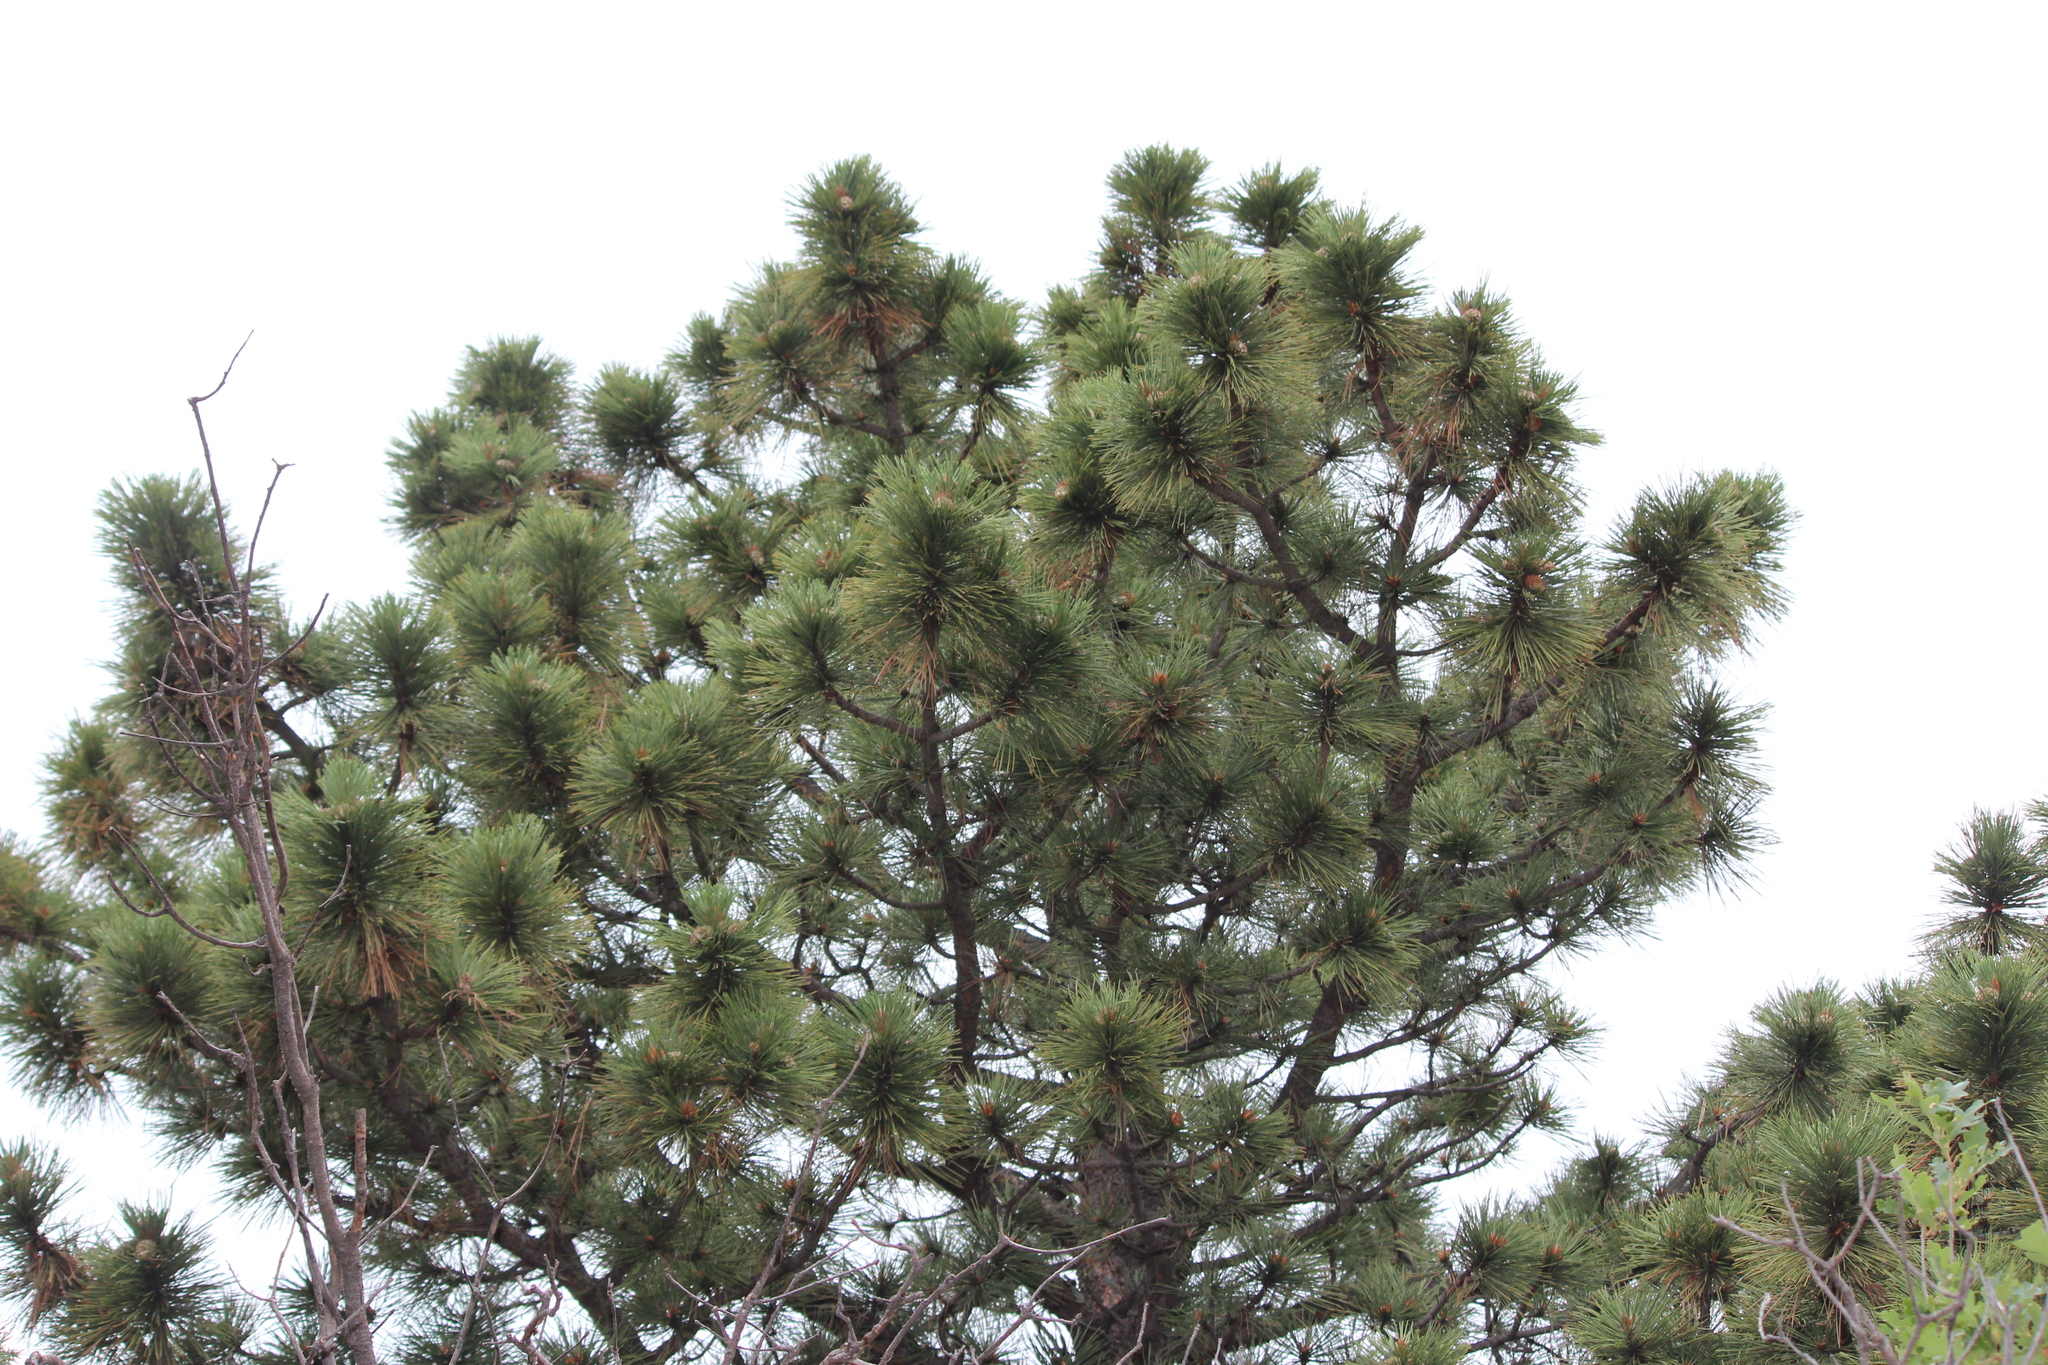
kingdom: Plantae
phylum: Tracheophyta
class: Pinopsida
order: Pinales
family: Pinaceae
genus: Pinus
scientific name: Pinus ponderosa
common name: Western yellow-pine
